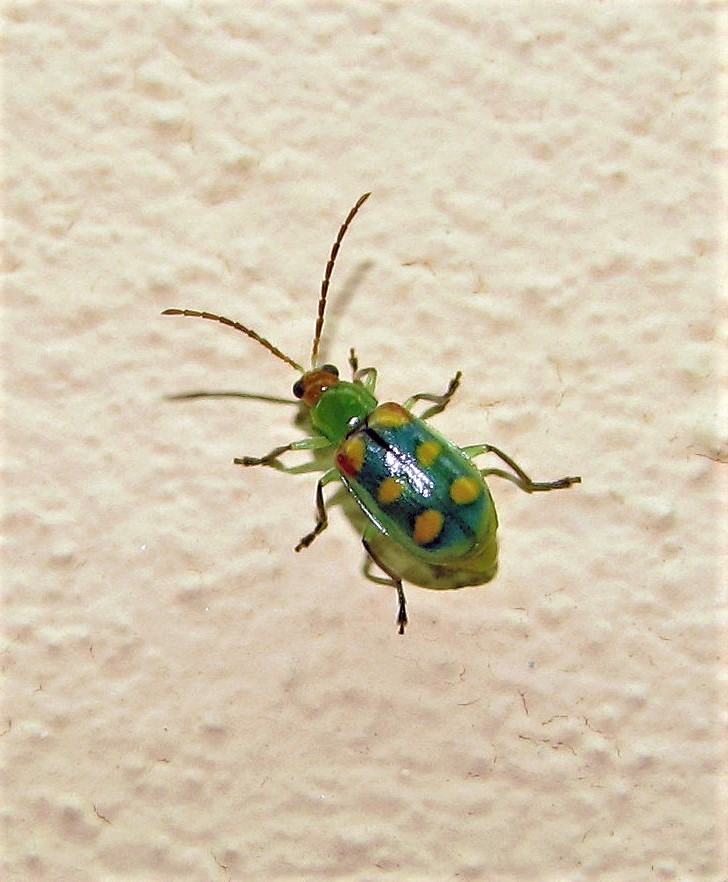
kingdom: Animalia
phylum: Arthropoda
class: Insecta
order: Coleoptera
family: Chrysomelidae
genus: Diabrotica
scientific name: Diabrotica speciosa
